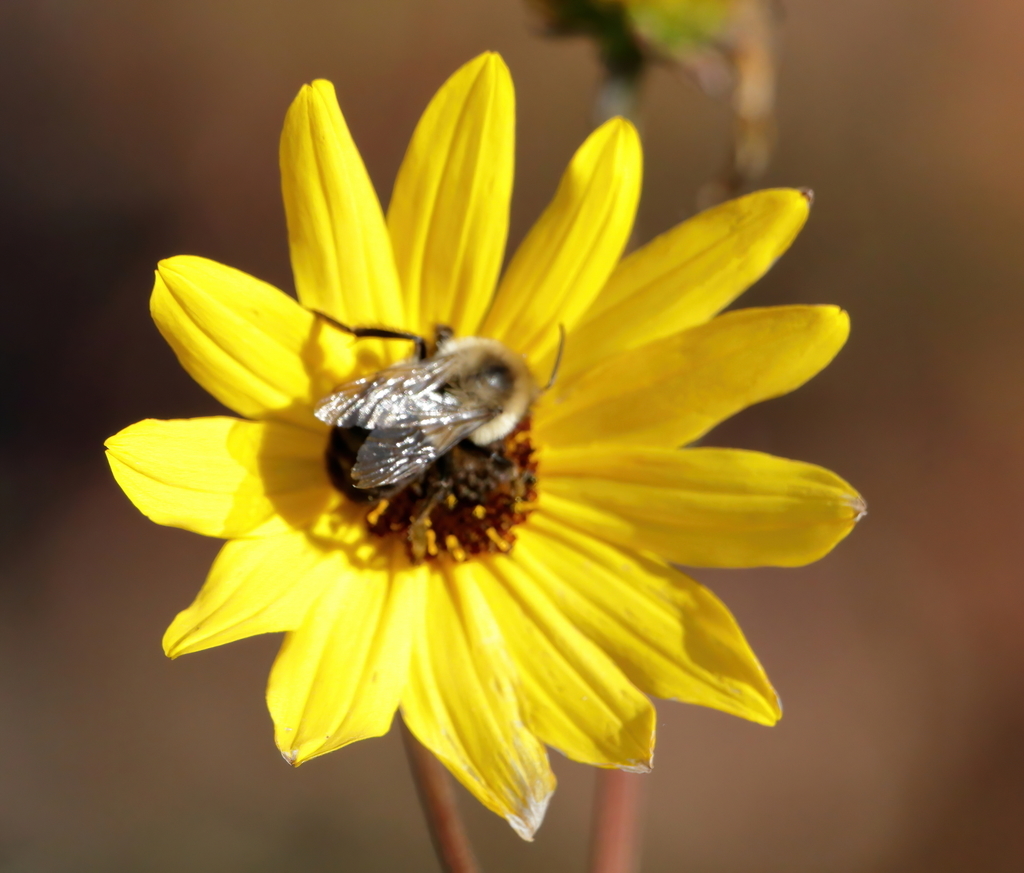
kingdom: Animalia
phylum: Arthropoda
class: Insecta
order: Hymenoptera
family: Apidae
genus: Bombus
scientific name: Bombus impatiens
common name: Common eastern bumble bee
